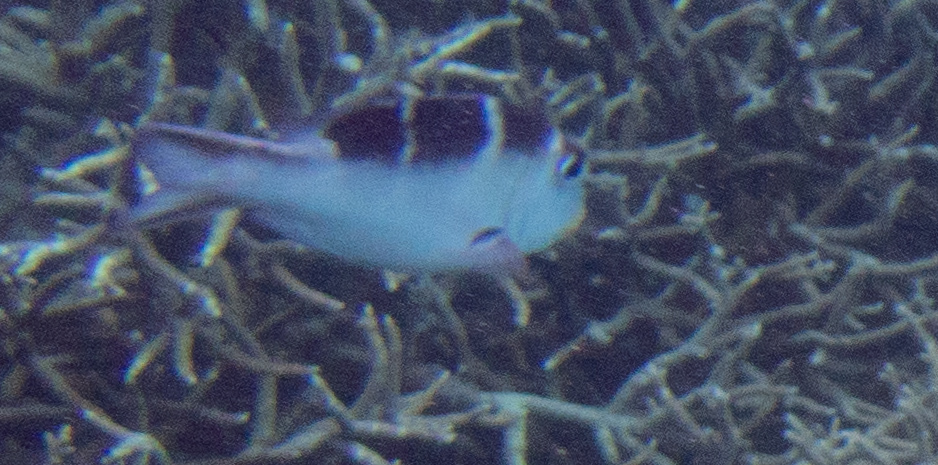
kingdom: Animalia
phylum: Chordata
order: Perciformes
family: Lethrinidae
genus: Monotaxis
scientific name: Monotaxis grandoculis
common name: Bigeye emperor
